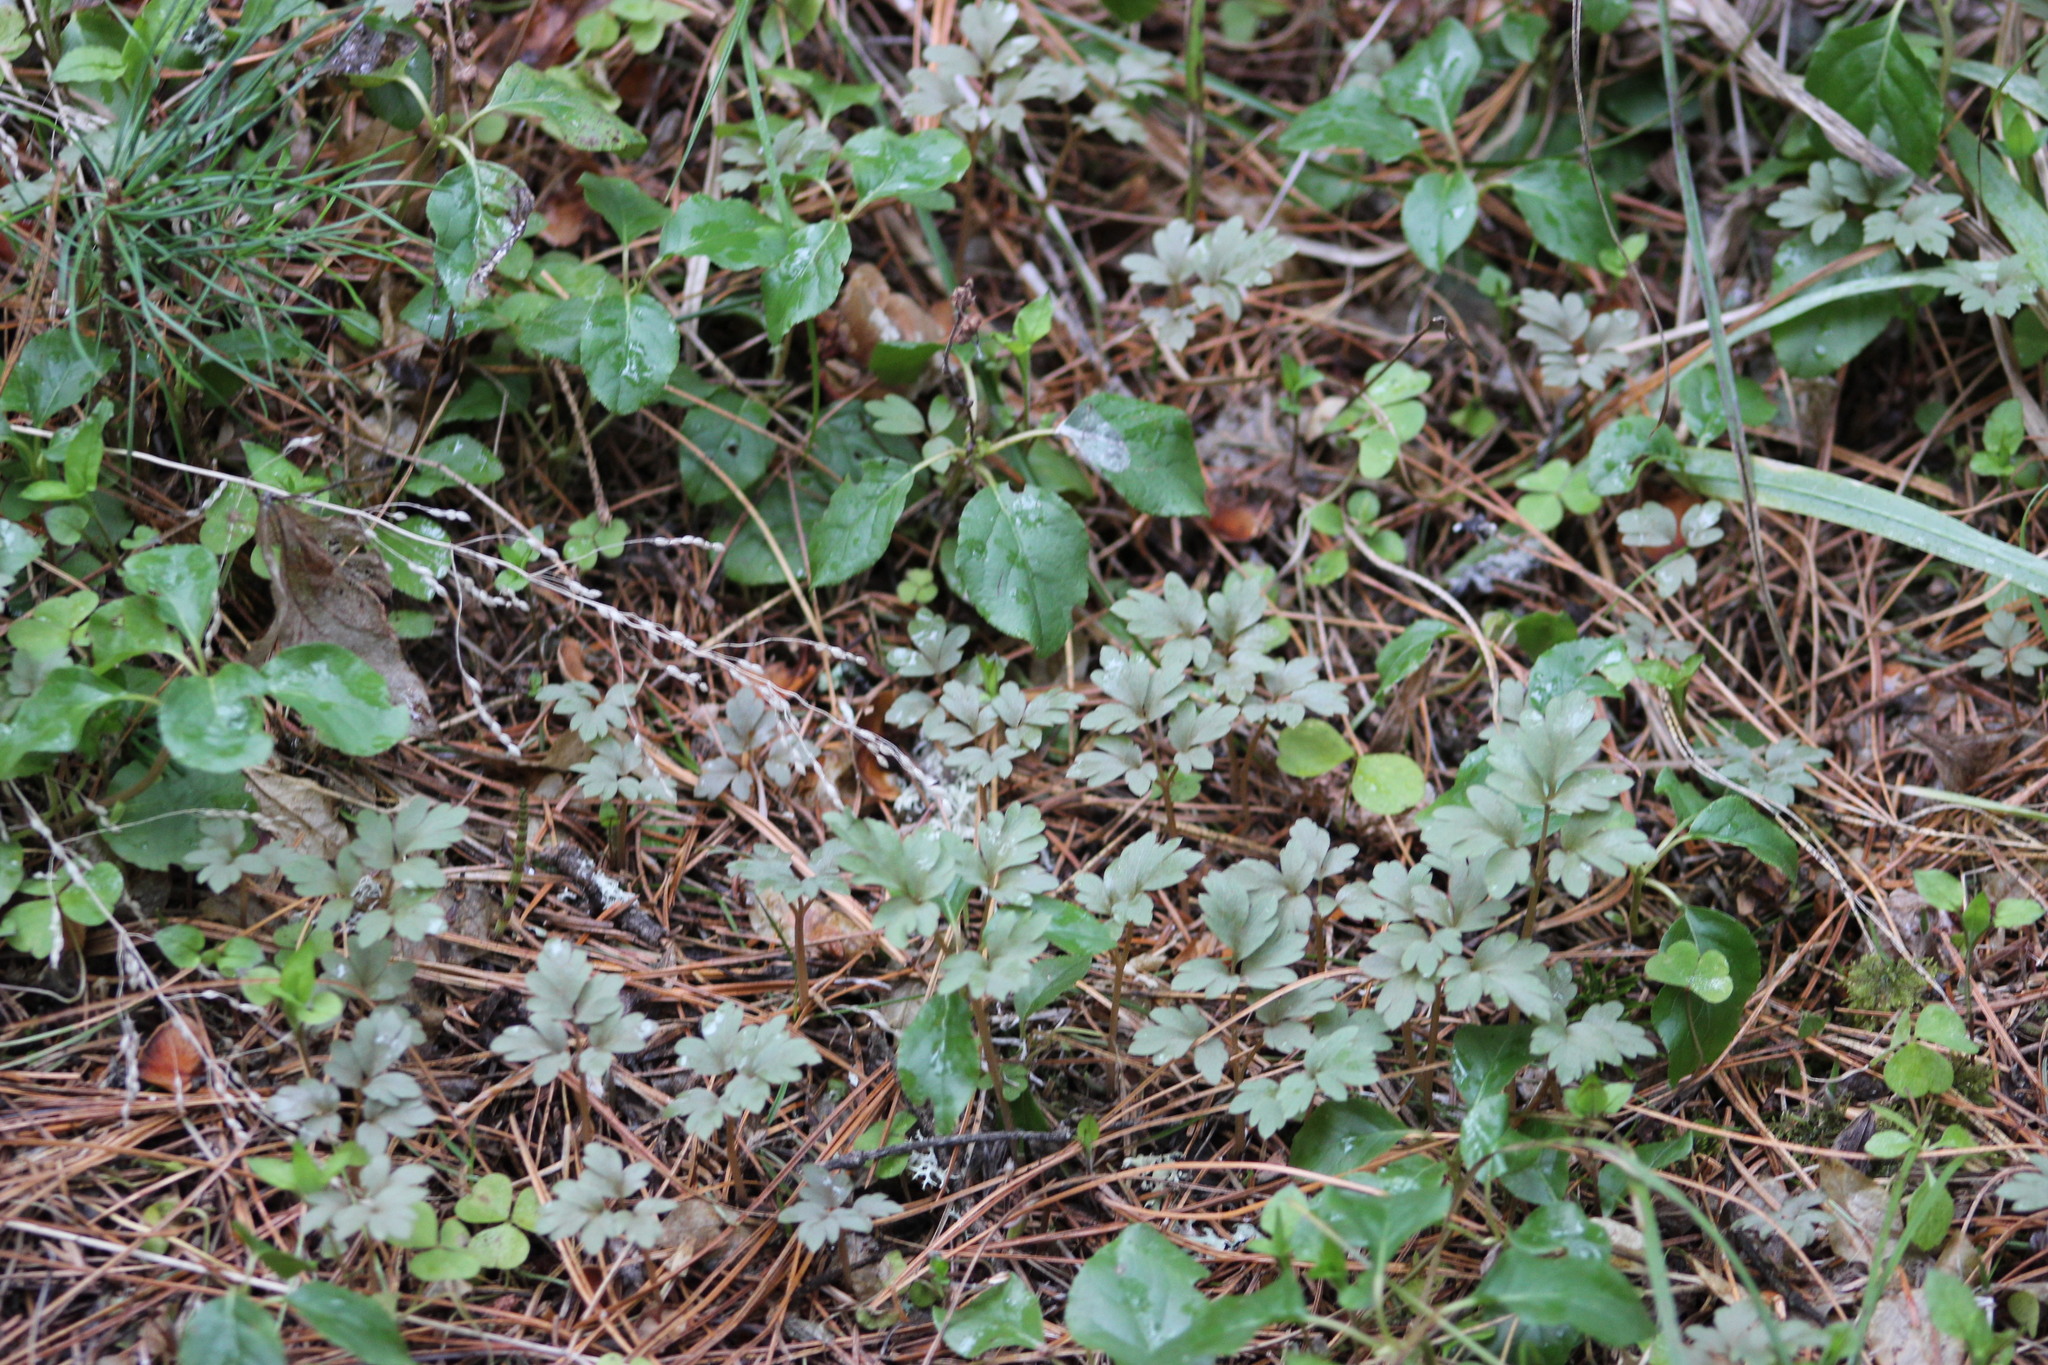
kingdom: Plantae
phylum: Tracheophyta
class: Magnoliopsida
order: Dipsacales
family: Viburnaceae
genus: Adoxa
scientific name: Adoxa moschatellina
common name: Moschatel
